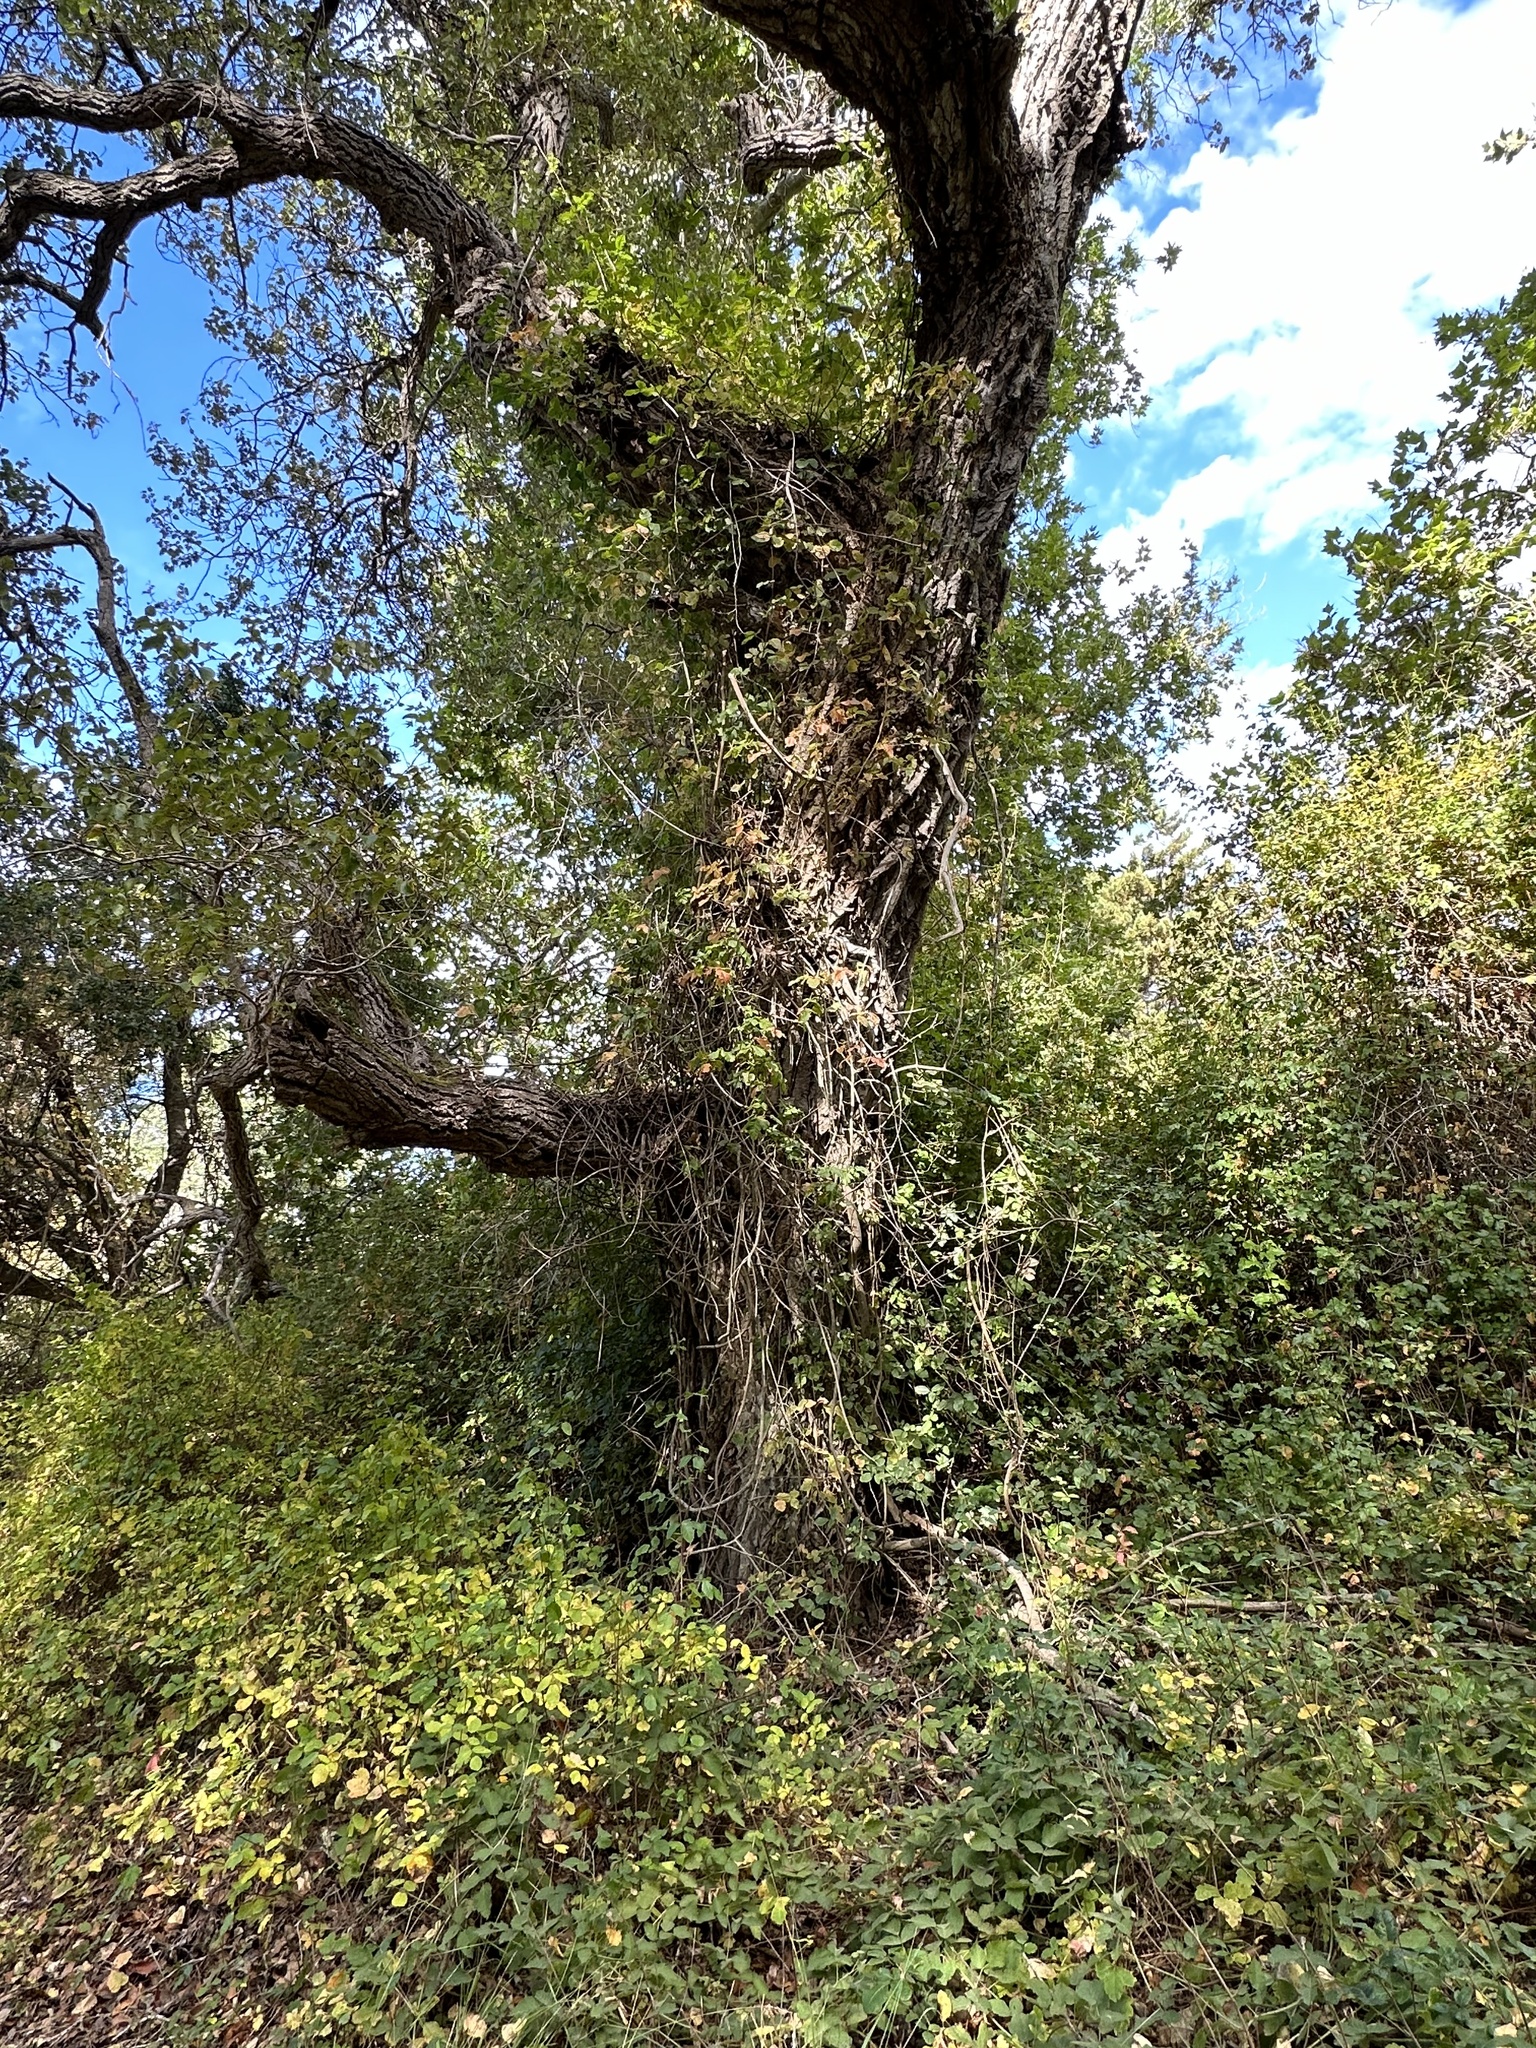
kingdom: Plantae
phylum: Tracheophyta
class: Magnoliopsida
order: Sapindales
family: Anacardiaceae
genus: Toxicodendron
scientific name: Toxicodendron diversilobum
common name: Pacific poison-oak
